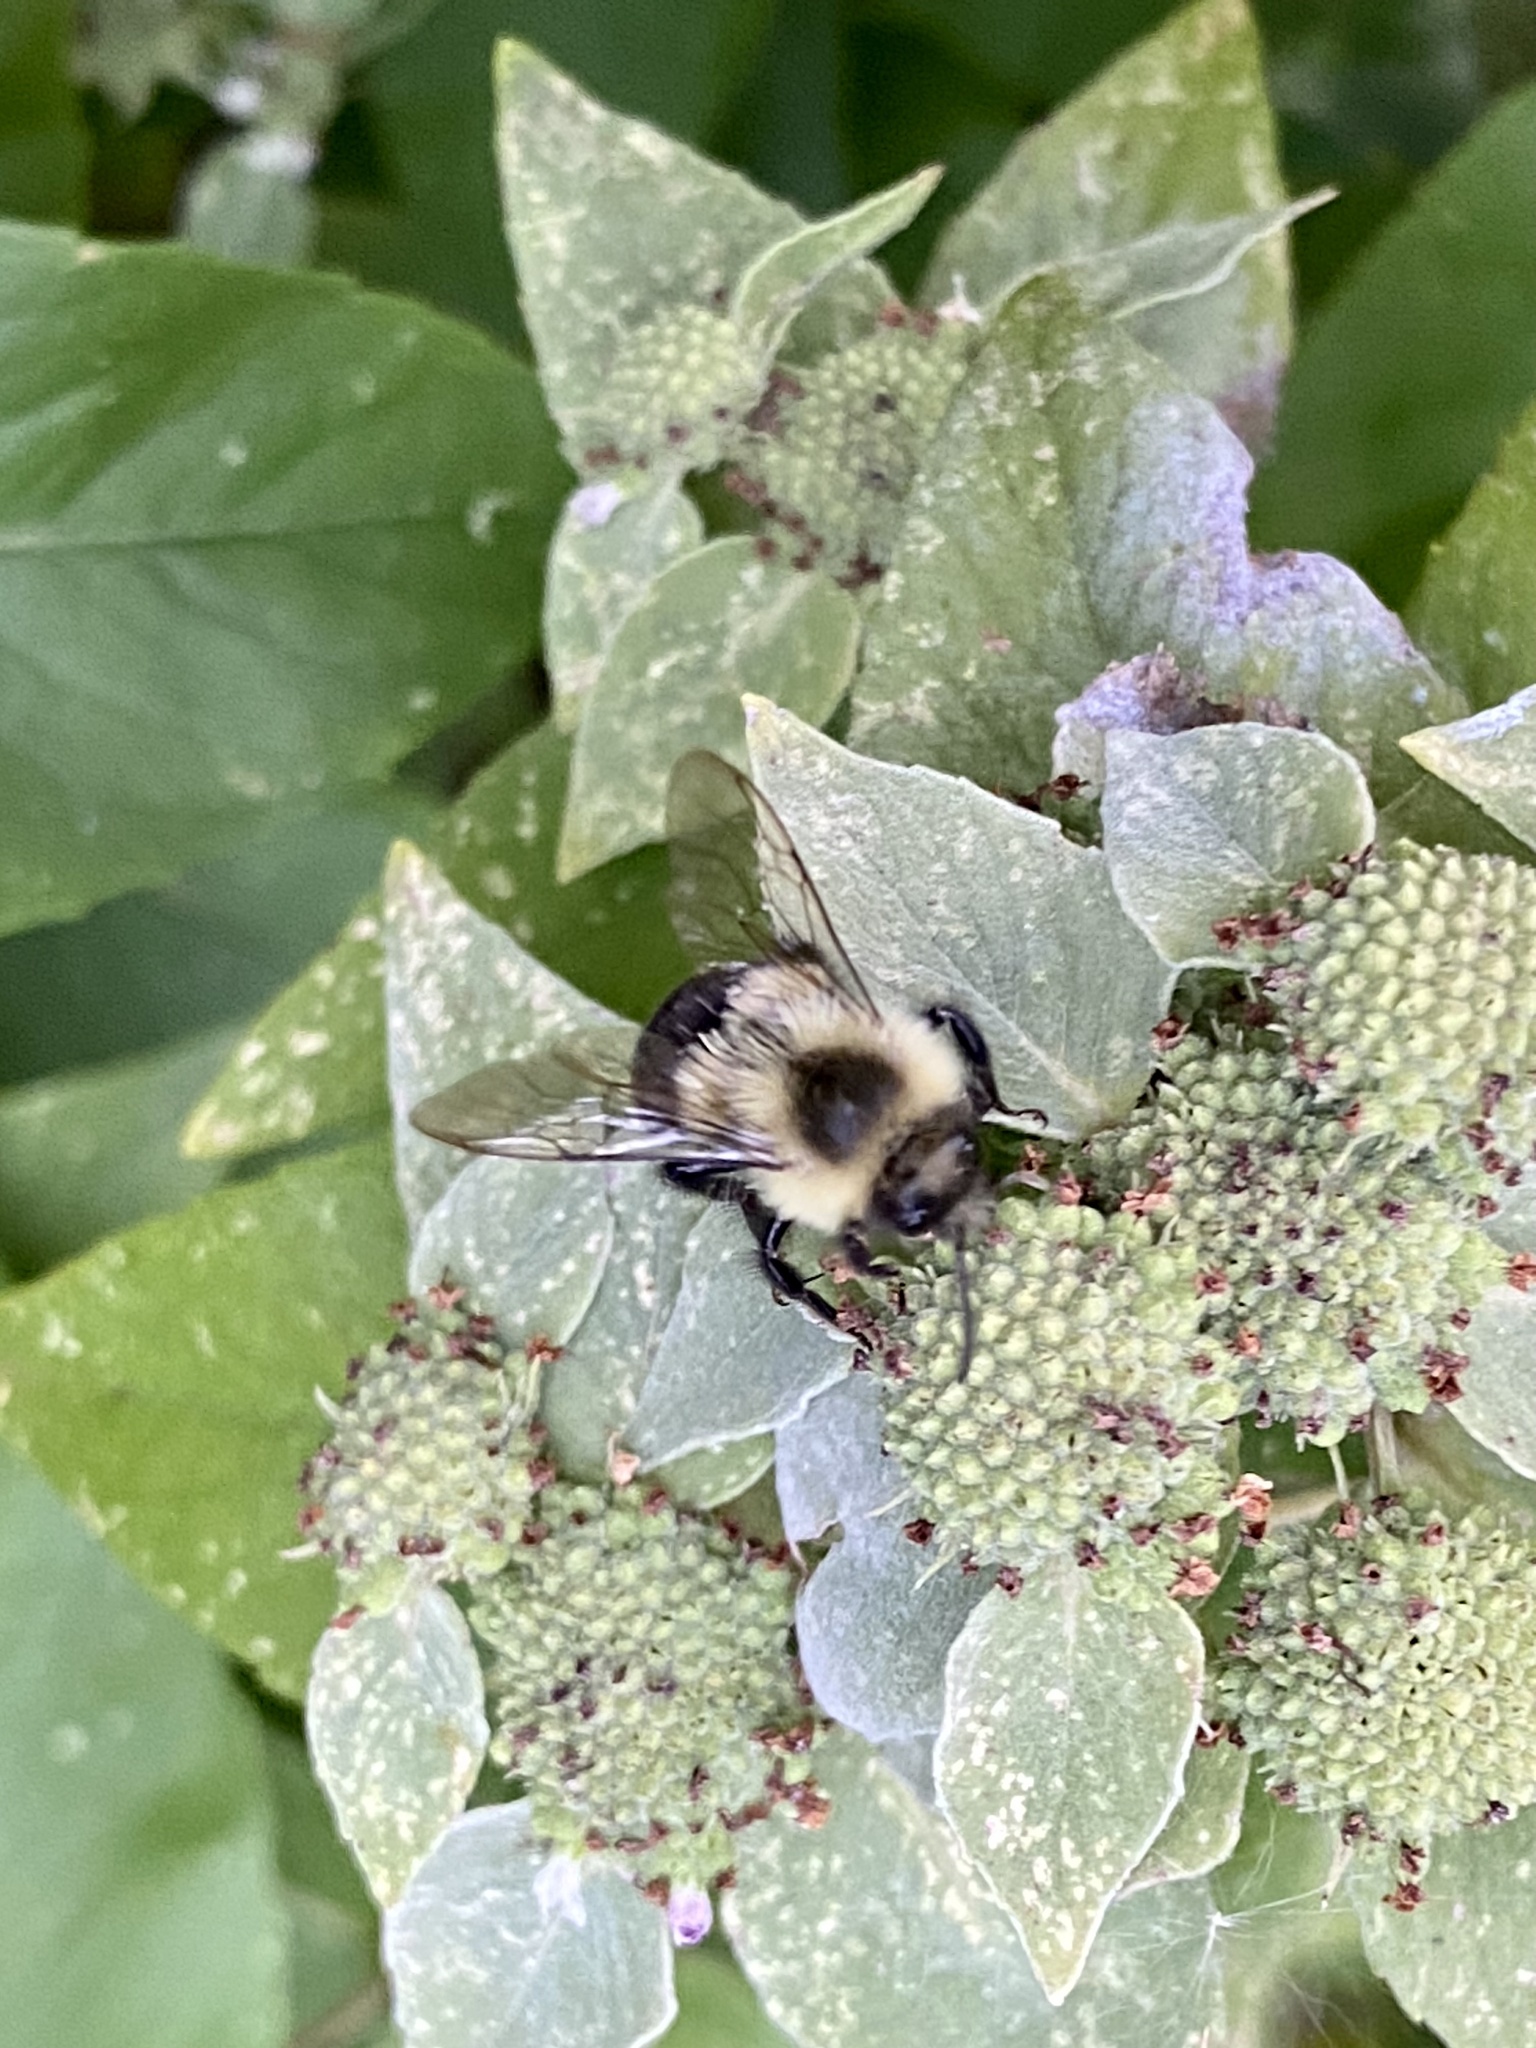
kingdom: Animalia
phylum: Arthropoda
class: Insecta
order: Hymenoptera
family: Apidae
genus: Bombus
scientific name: Bombus impatiens
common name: Common eastern bumble bee
